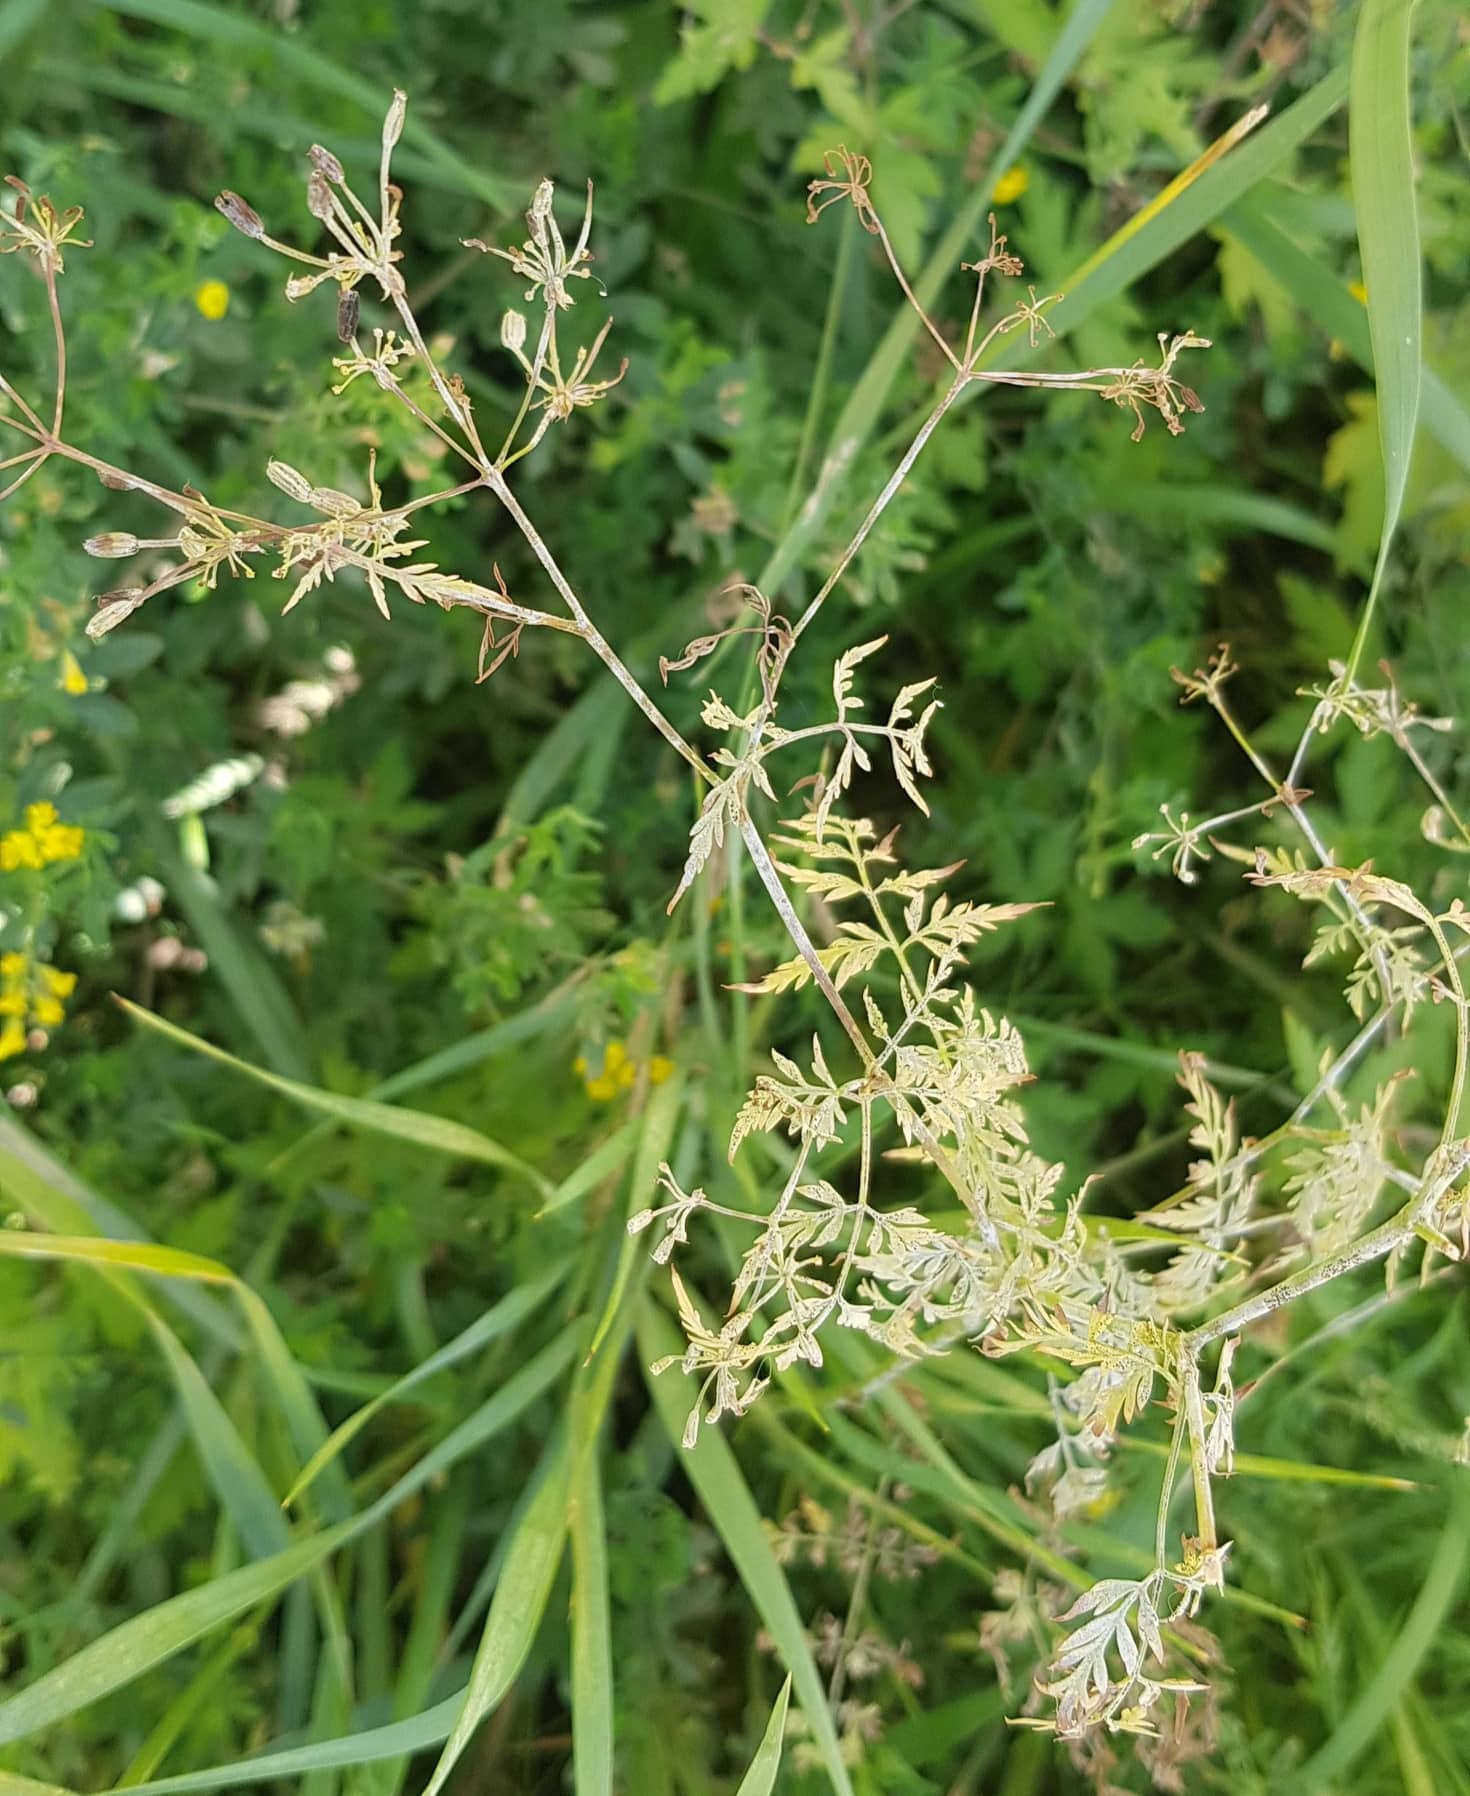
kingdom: Plantae
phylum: Tracheophyta
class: Magnoliopsida
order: Apiales
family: Apiaceae
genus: Sphallerocarpus
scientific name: Sphallerocarpus gracilis
